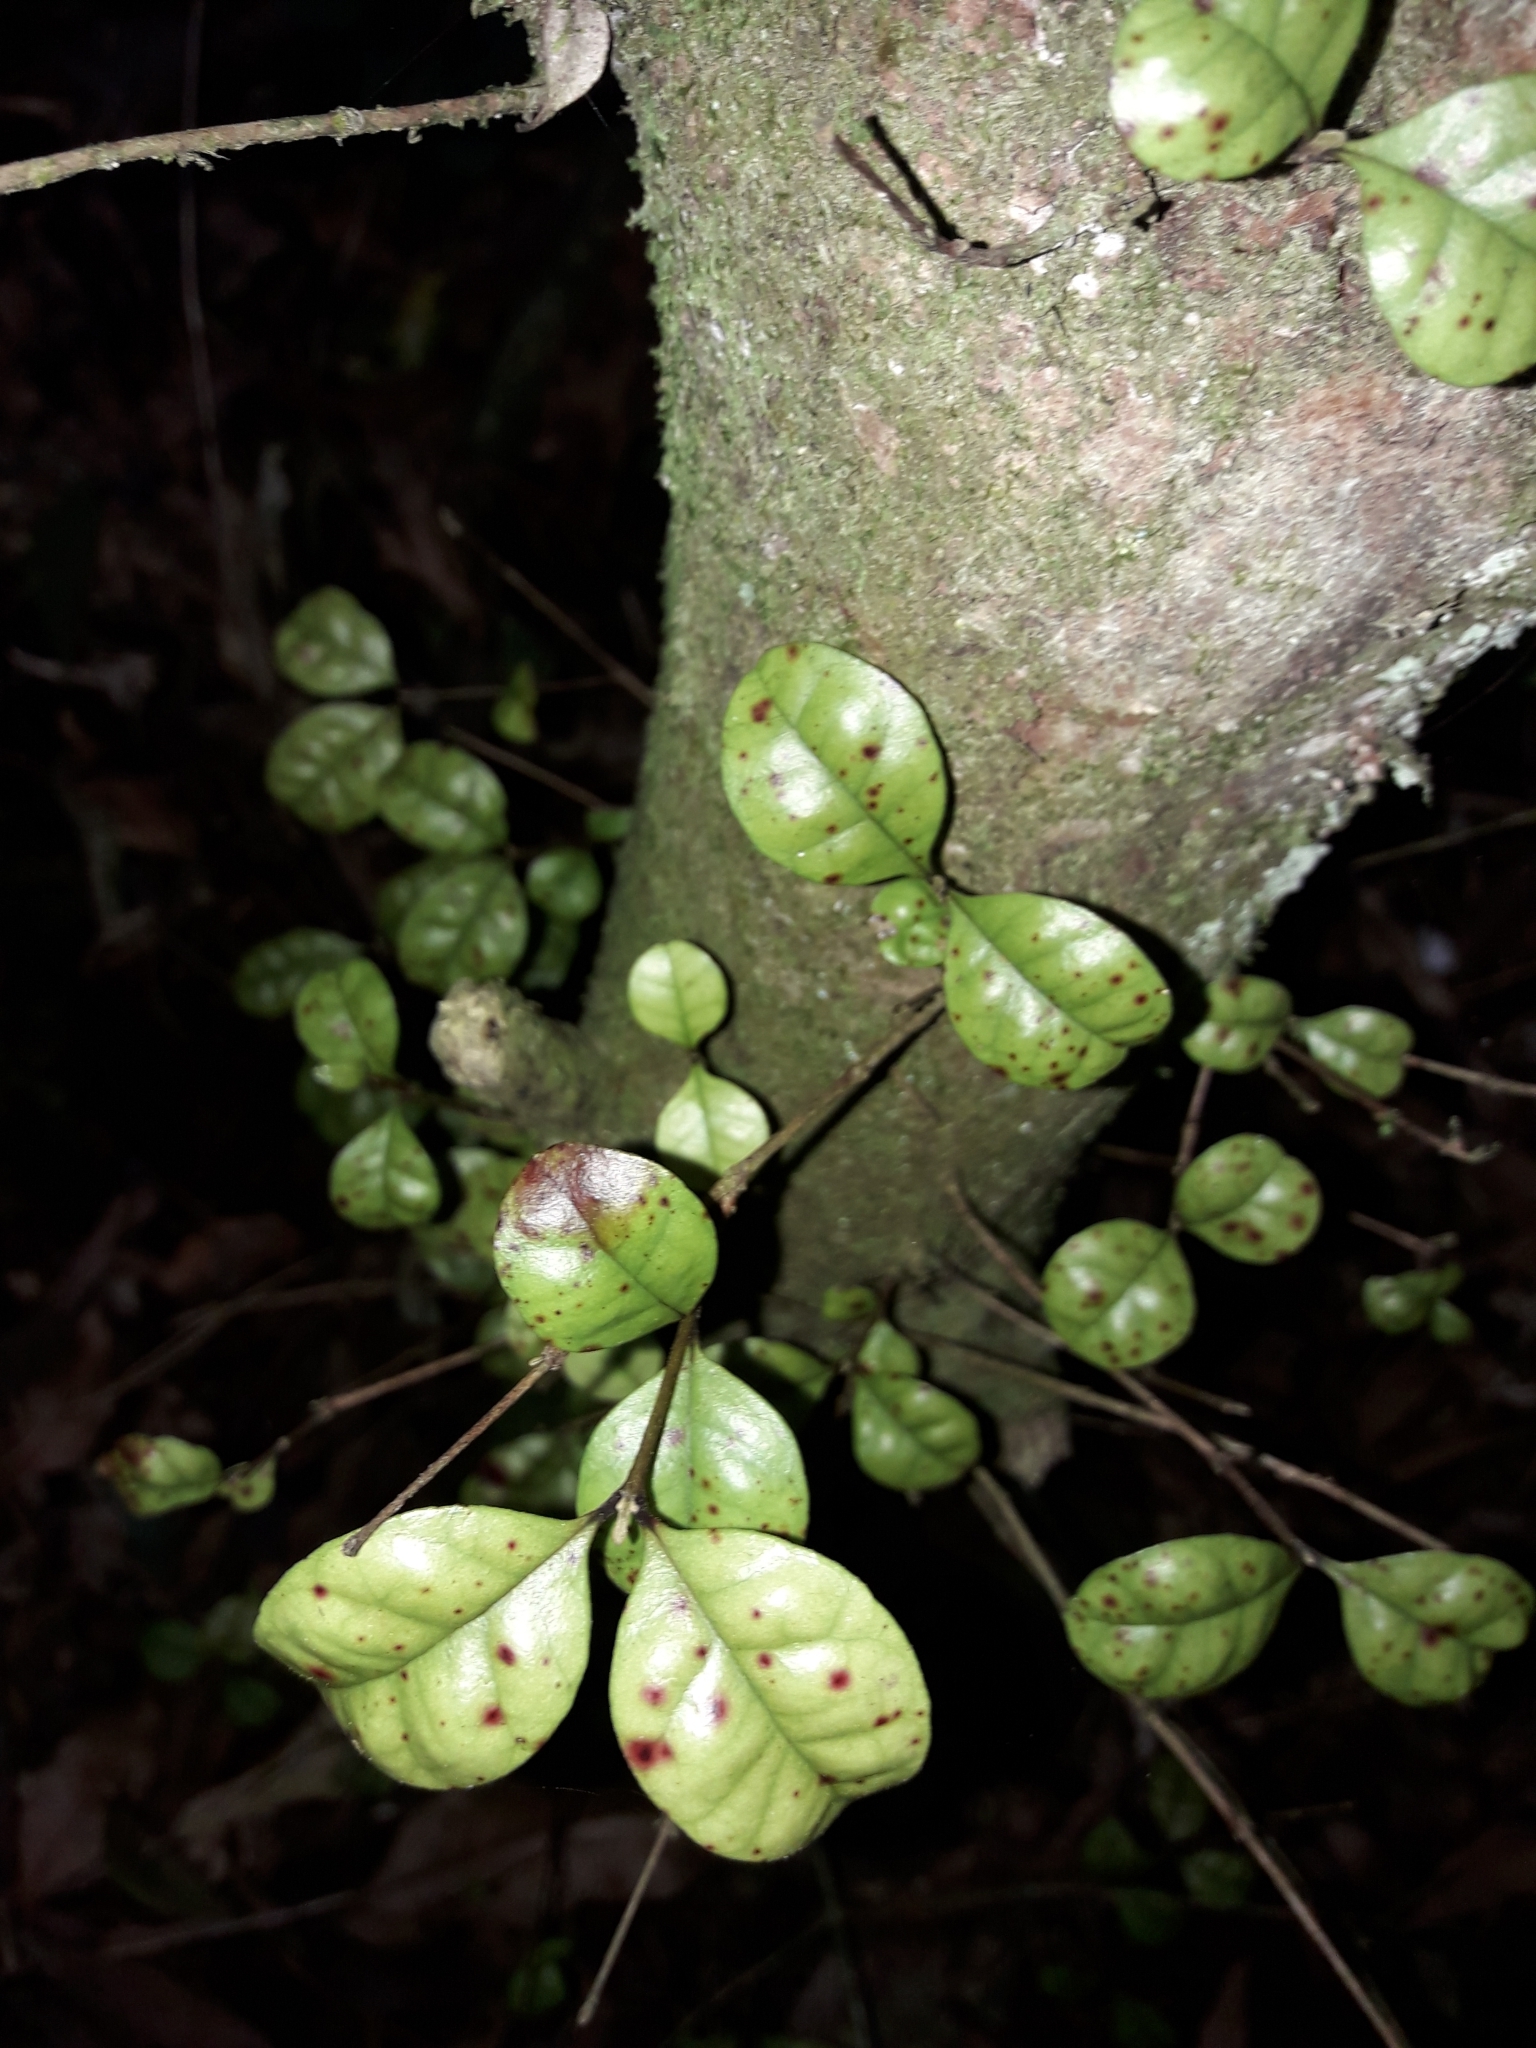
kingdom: Plantae
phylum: Tracheophyta
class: Magnoliopsida
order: Myrtales
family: Myrtaceae
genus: Lophomyrtus
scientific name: Lophomyrtus bullata
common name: Rama rama
